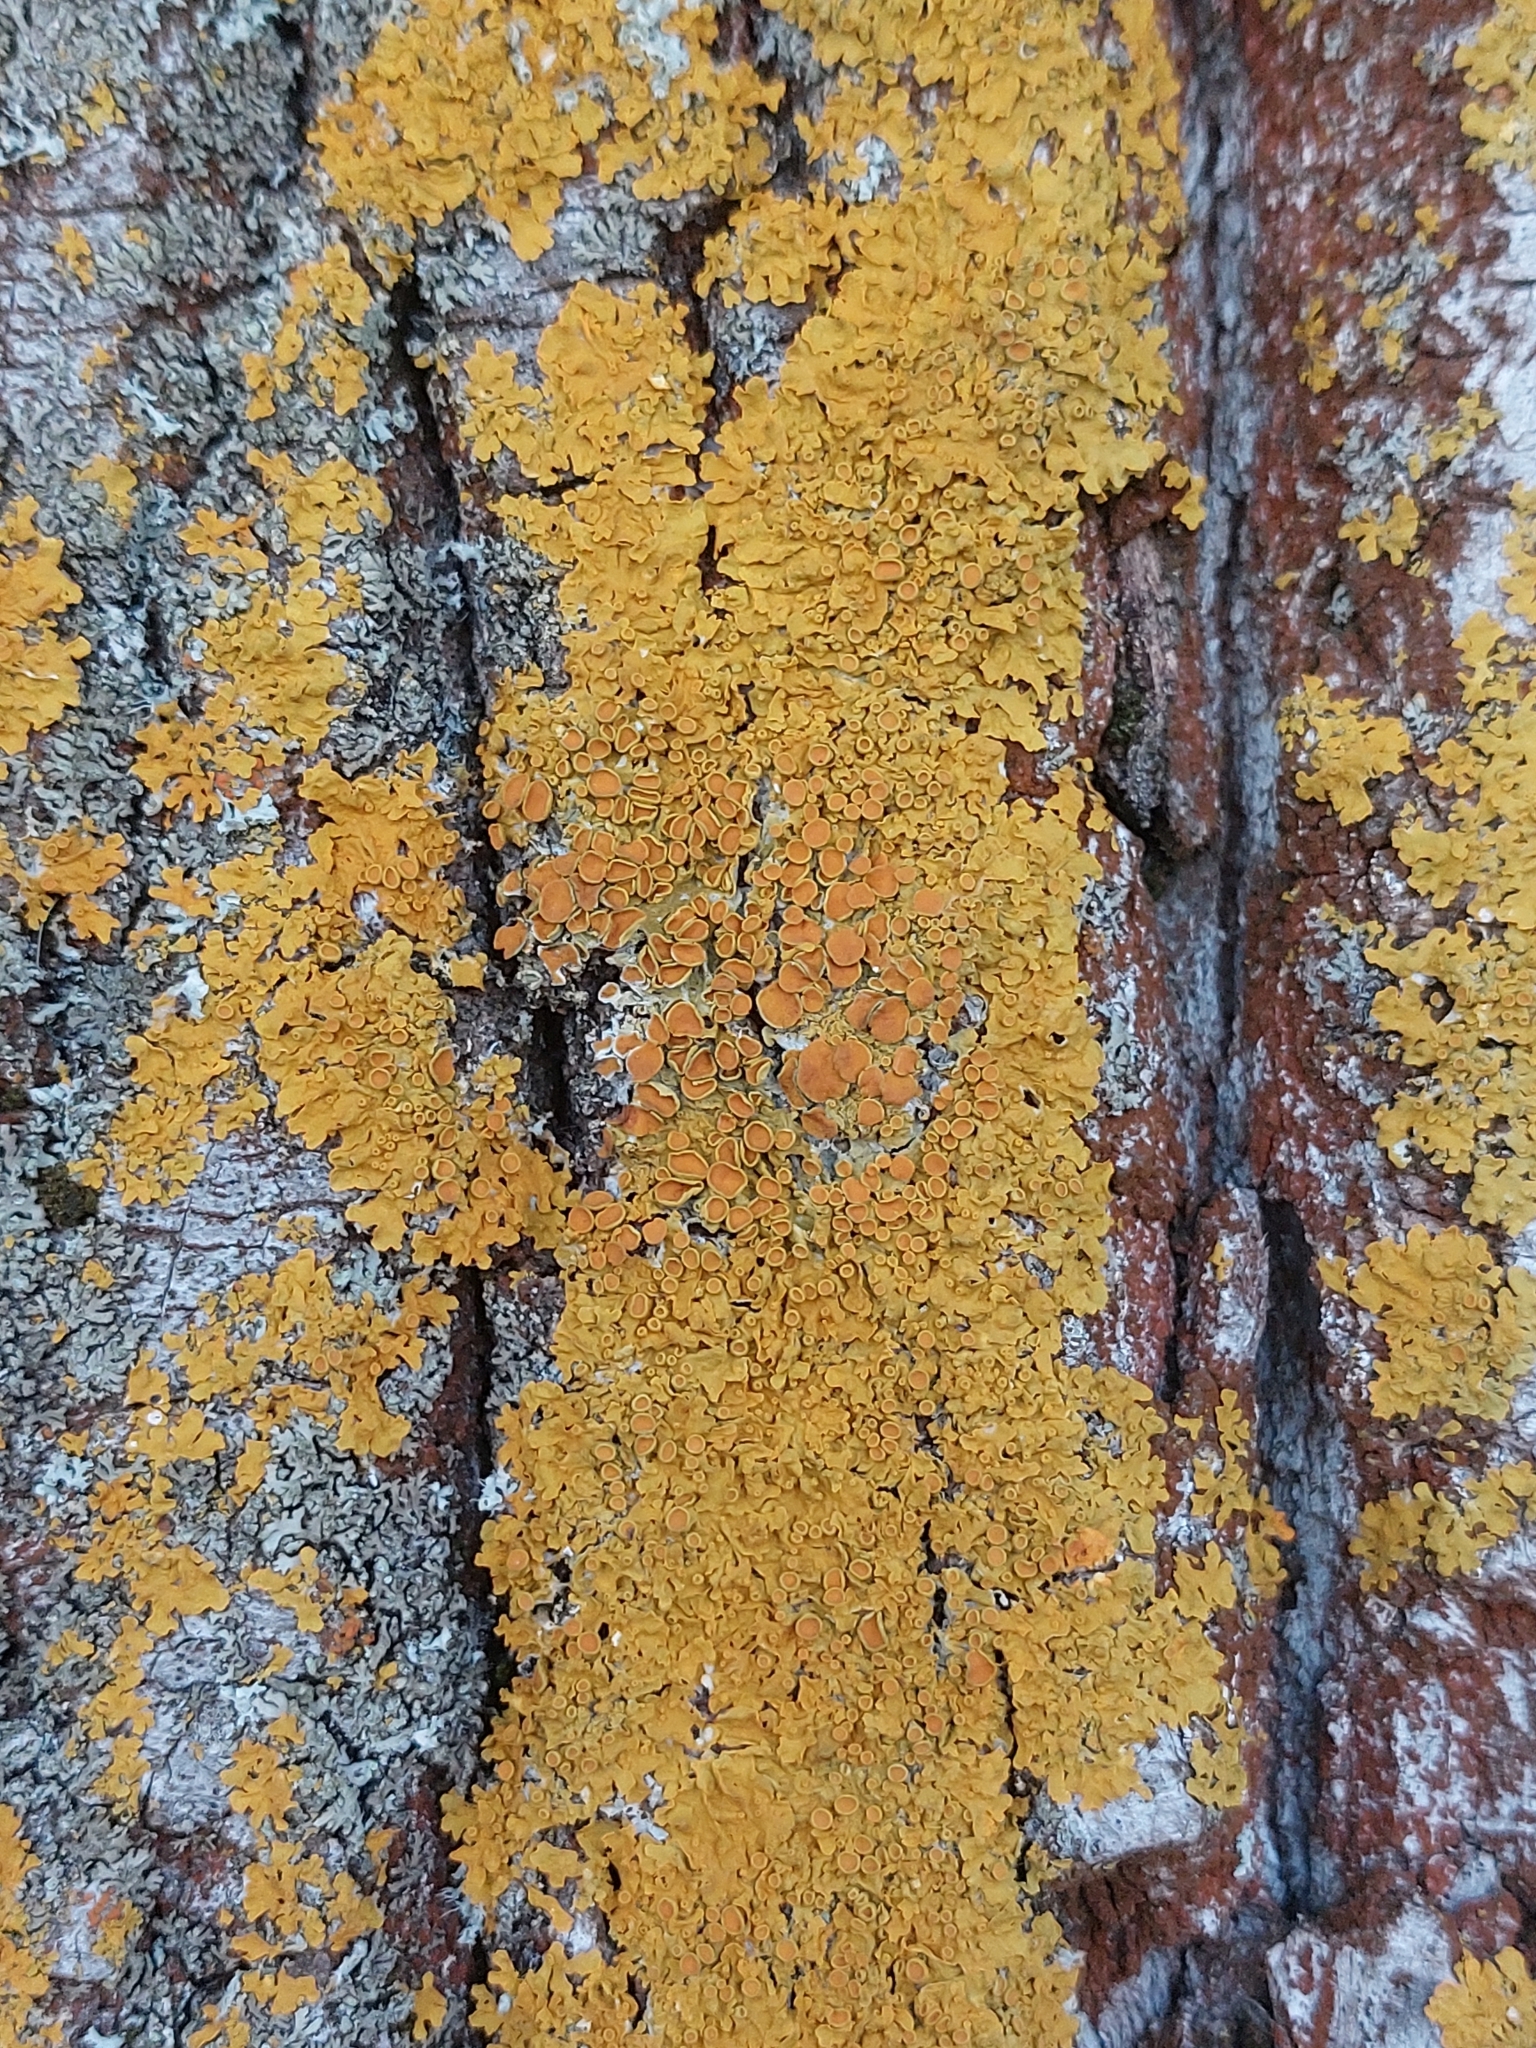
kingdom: Fungi
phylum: Ascomycota
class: Lecanoromycetes
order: Teloschistales
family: Teloschistaceae
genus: Xanthoria
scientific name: Xanthoria parietina
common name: Common orange lichen
